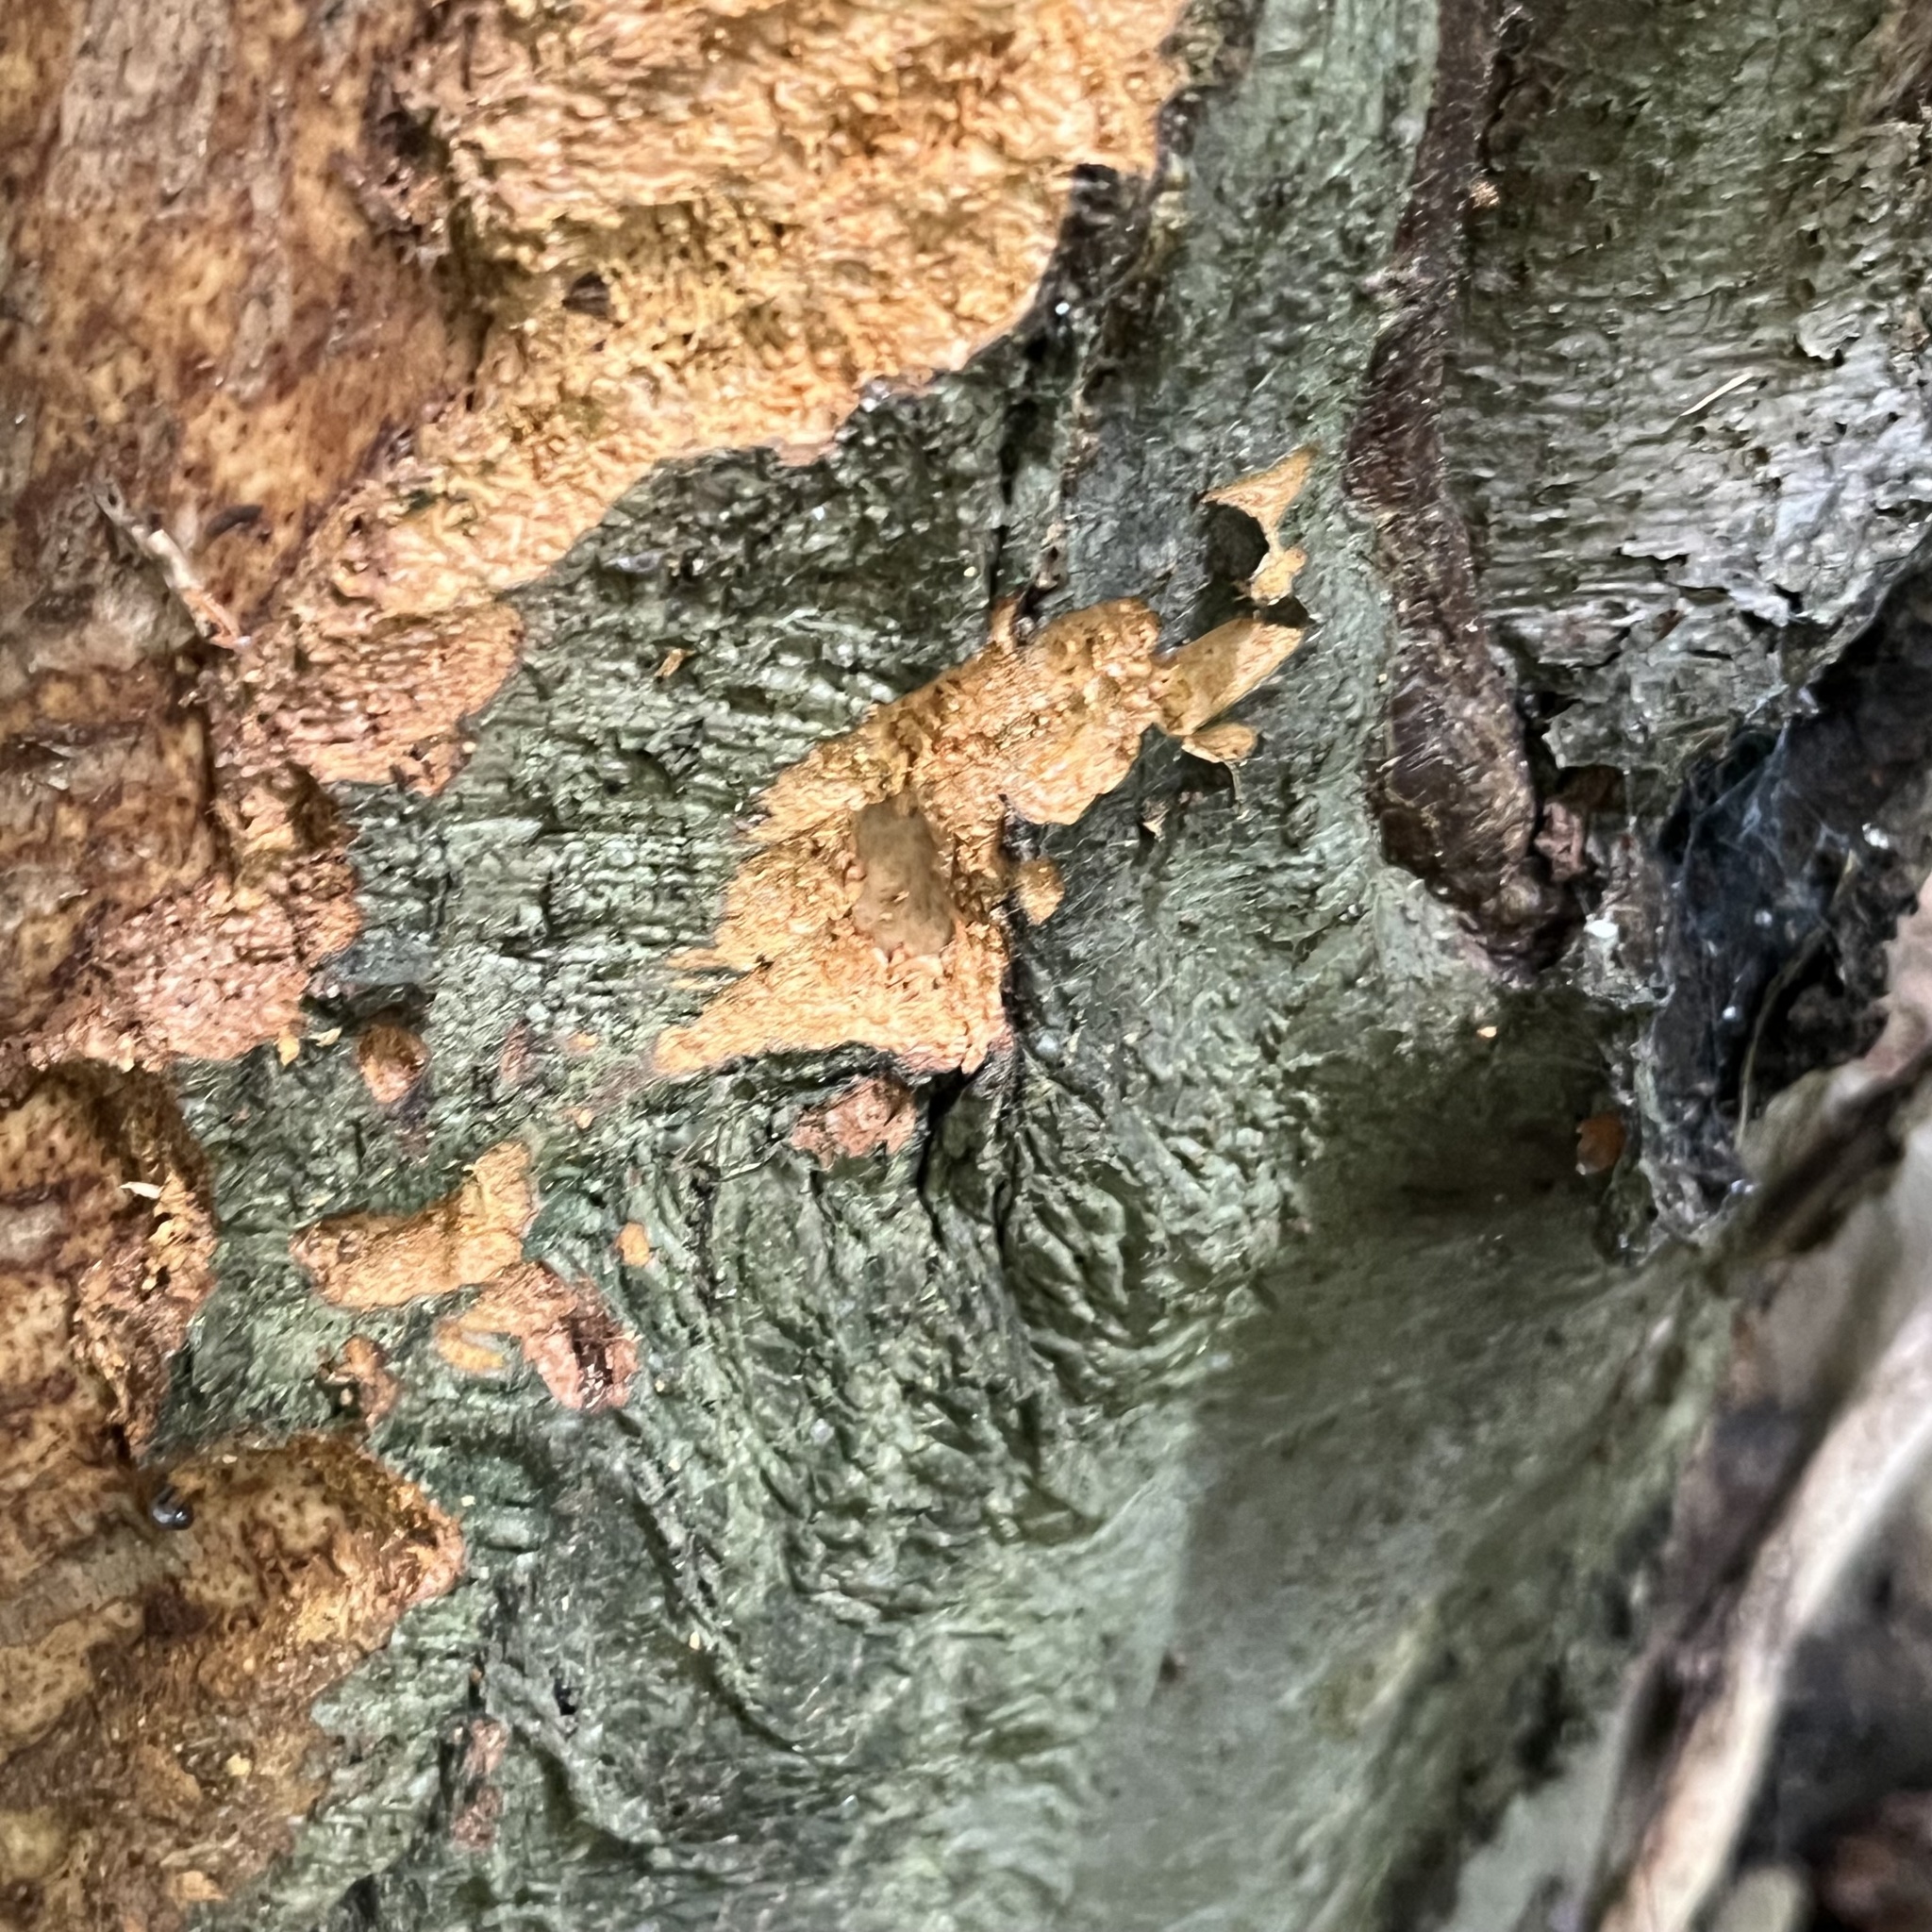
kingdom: Animalia
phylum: Chordata
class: Mammalia
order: Rodentia
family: Castoridae
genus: Castor
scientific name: Castor fiber
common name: Eurasian beaver
